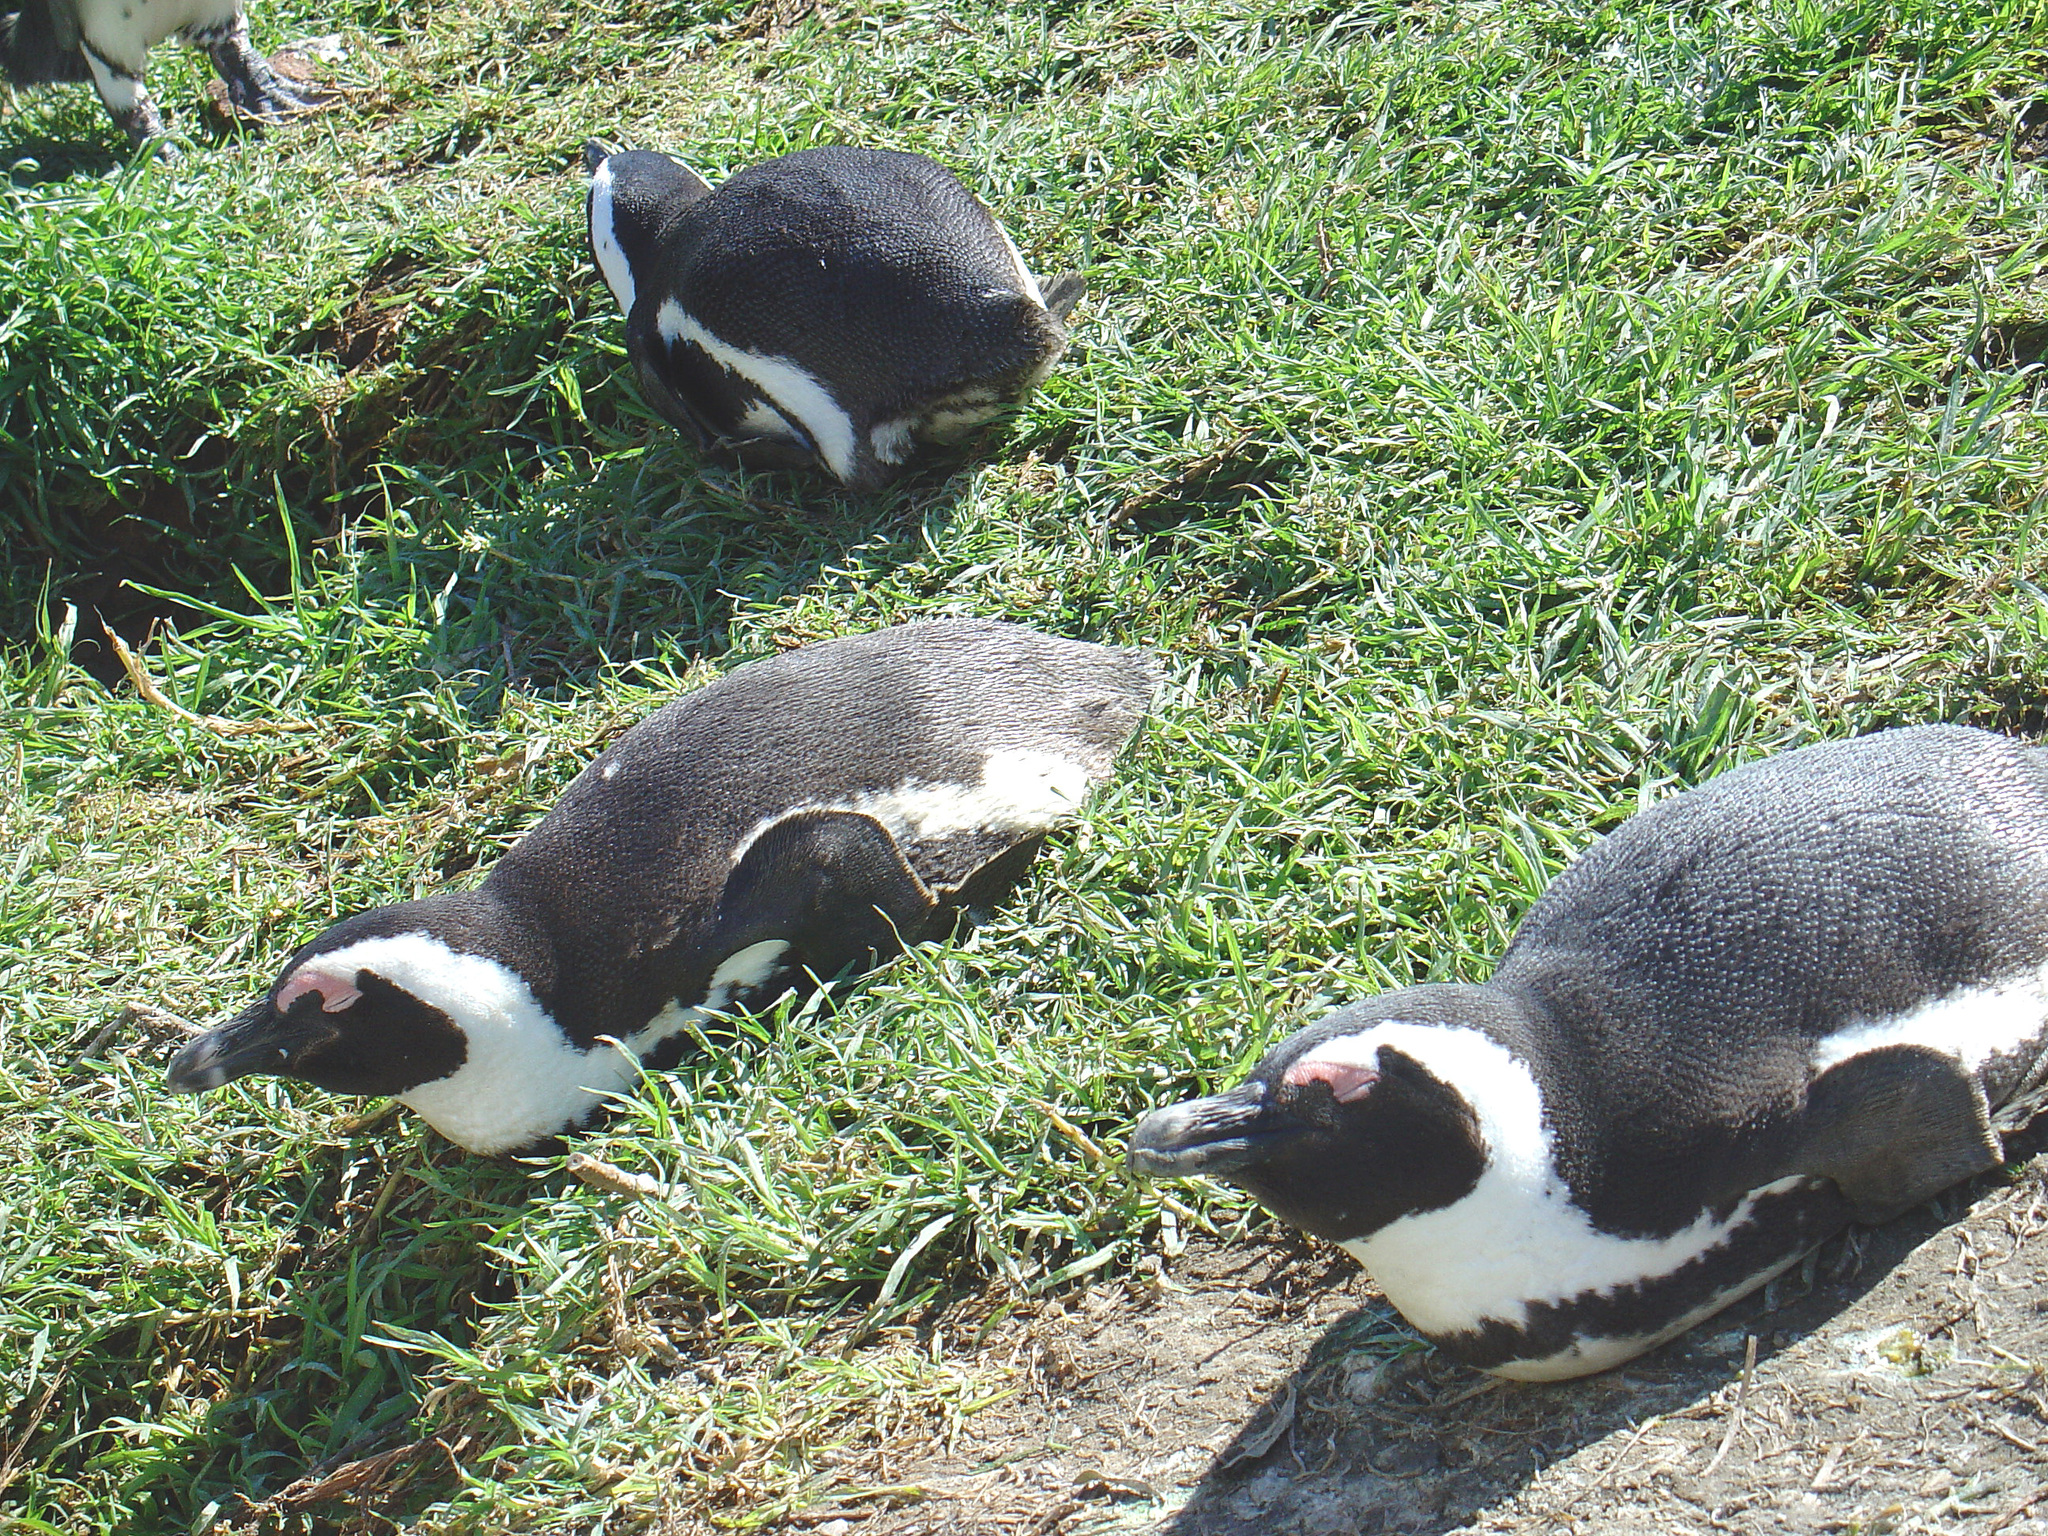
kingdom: Animalia
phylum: Chordata
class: Aves
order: Sphenisciformes
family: Spheniscidae
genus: Spheniscus
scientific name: Spheniscus demersus
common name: African penguin
